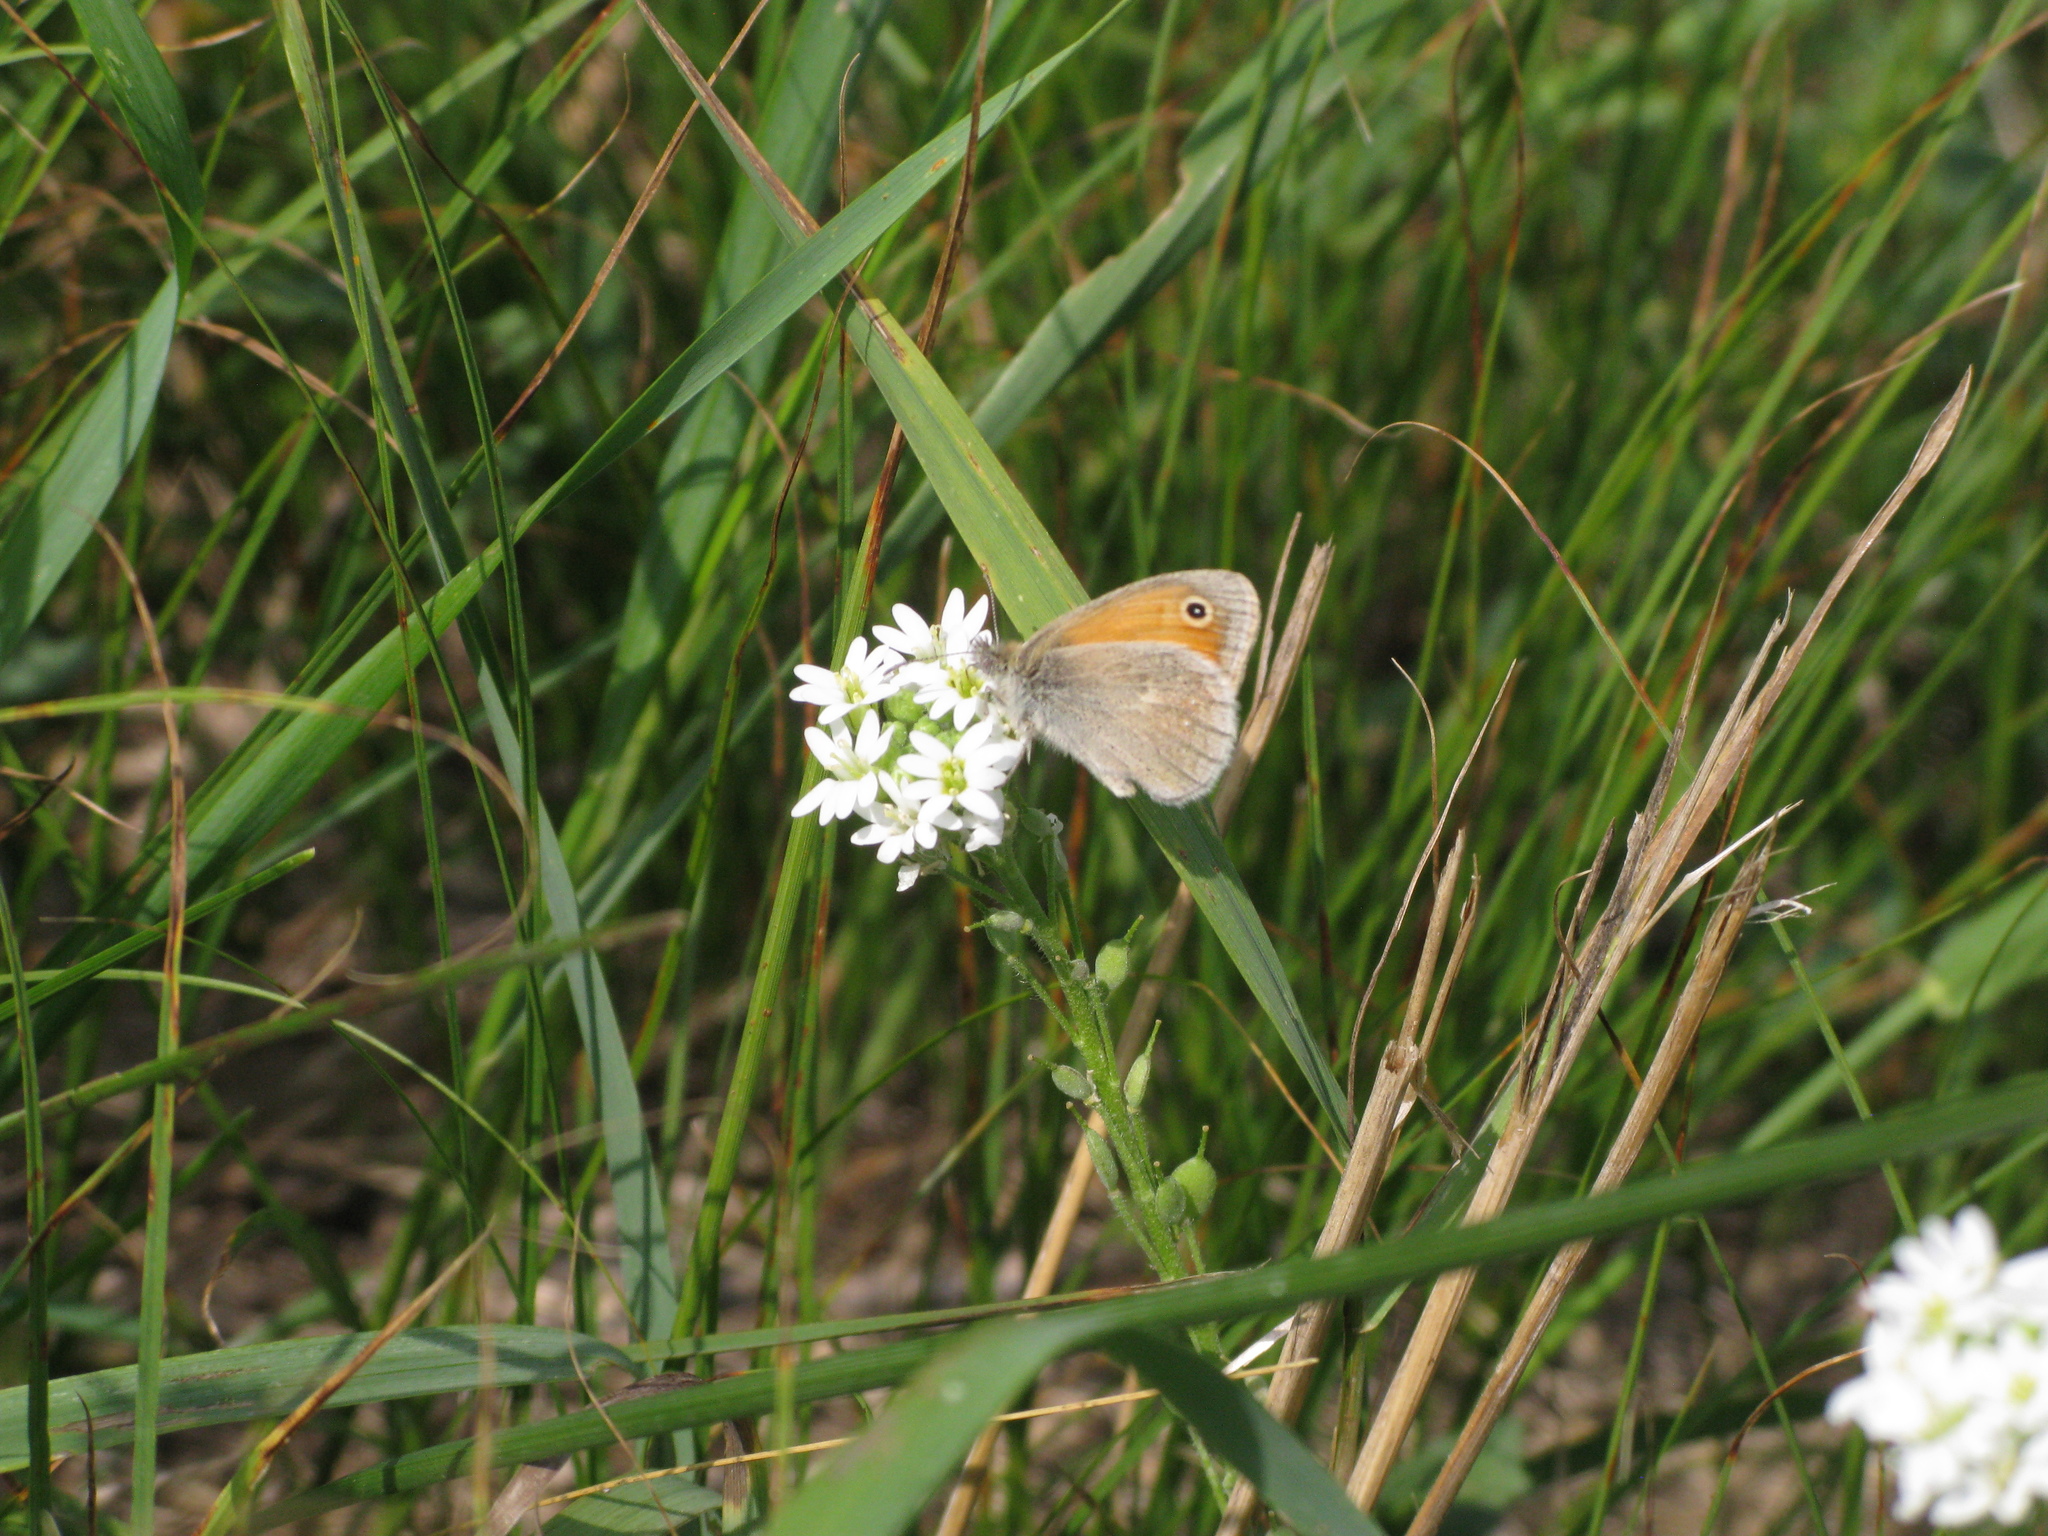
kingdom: Animalia
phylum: Arthropoda
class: Insecta
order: Lepidoptera
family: Nymphalidae
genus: Coenonympha
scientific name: Coenonympha pamphilus
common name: Small heath
